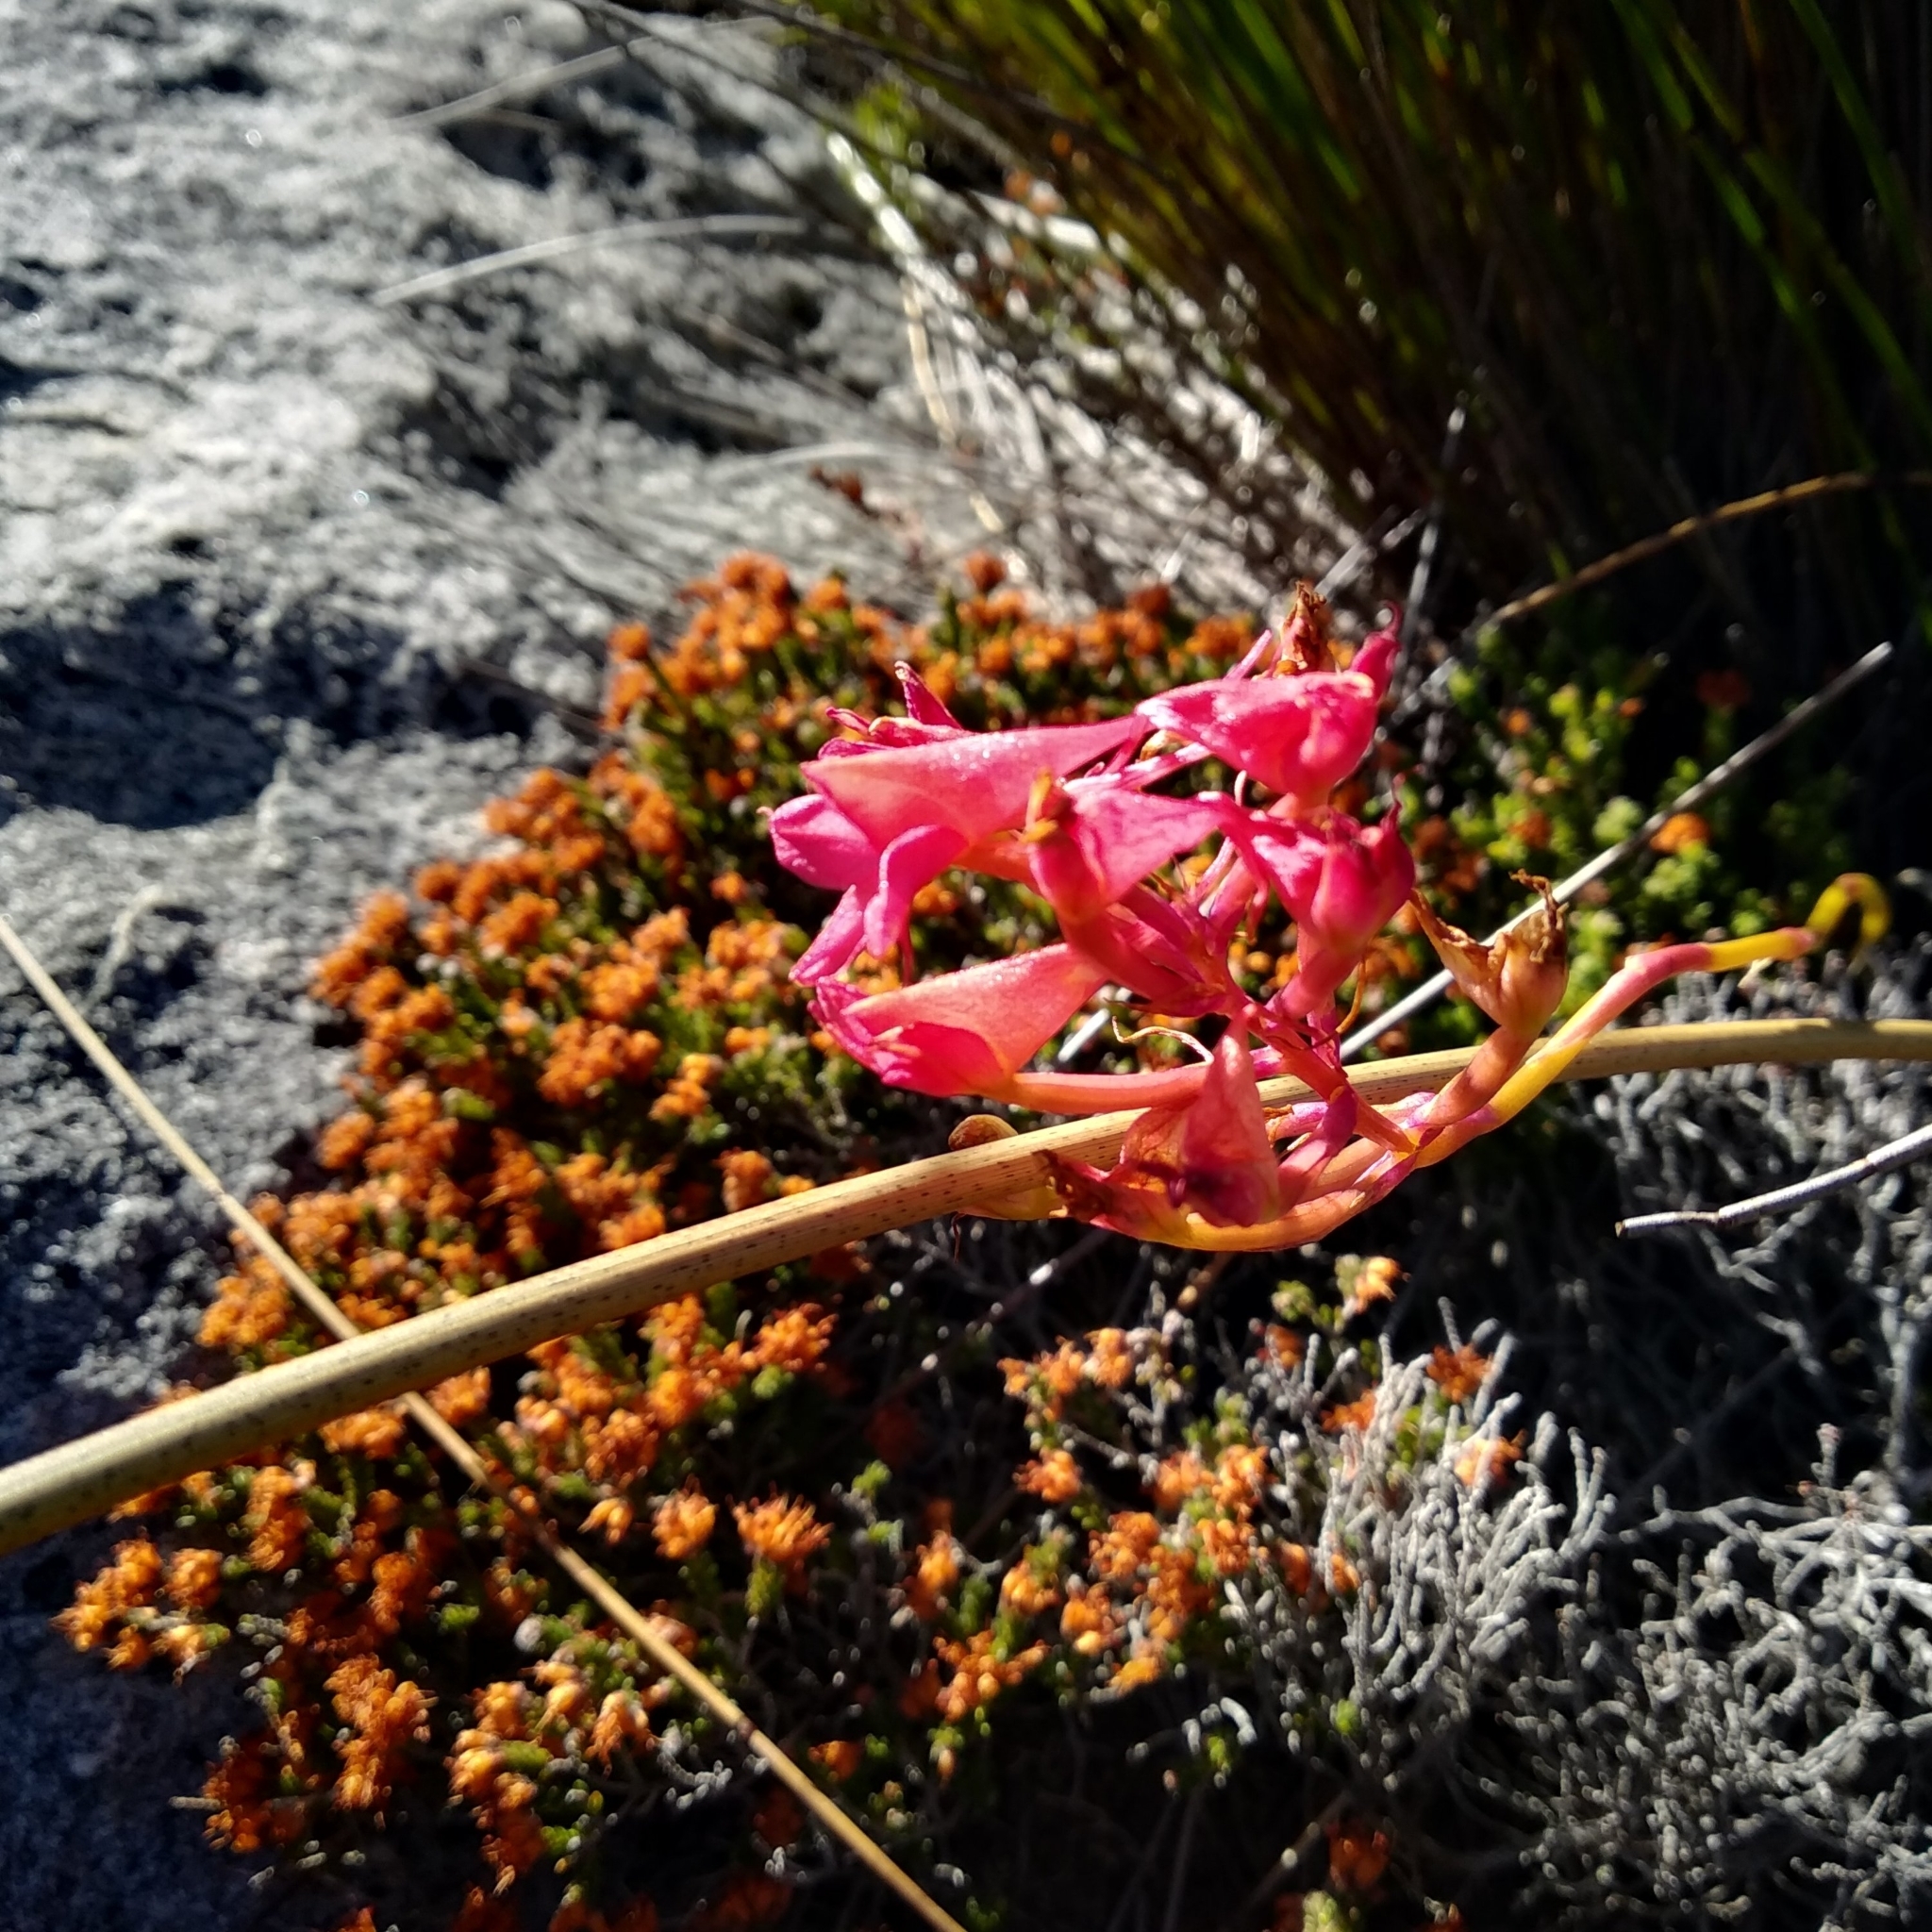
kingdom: Plantae
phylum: Tracheophyta
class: Liliopsida
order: Asparagales
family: Orchidaceae
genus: Disa
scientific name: Disa ferruginea
